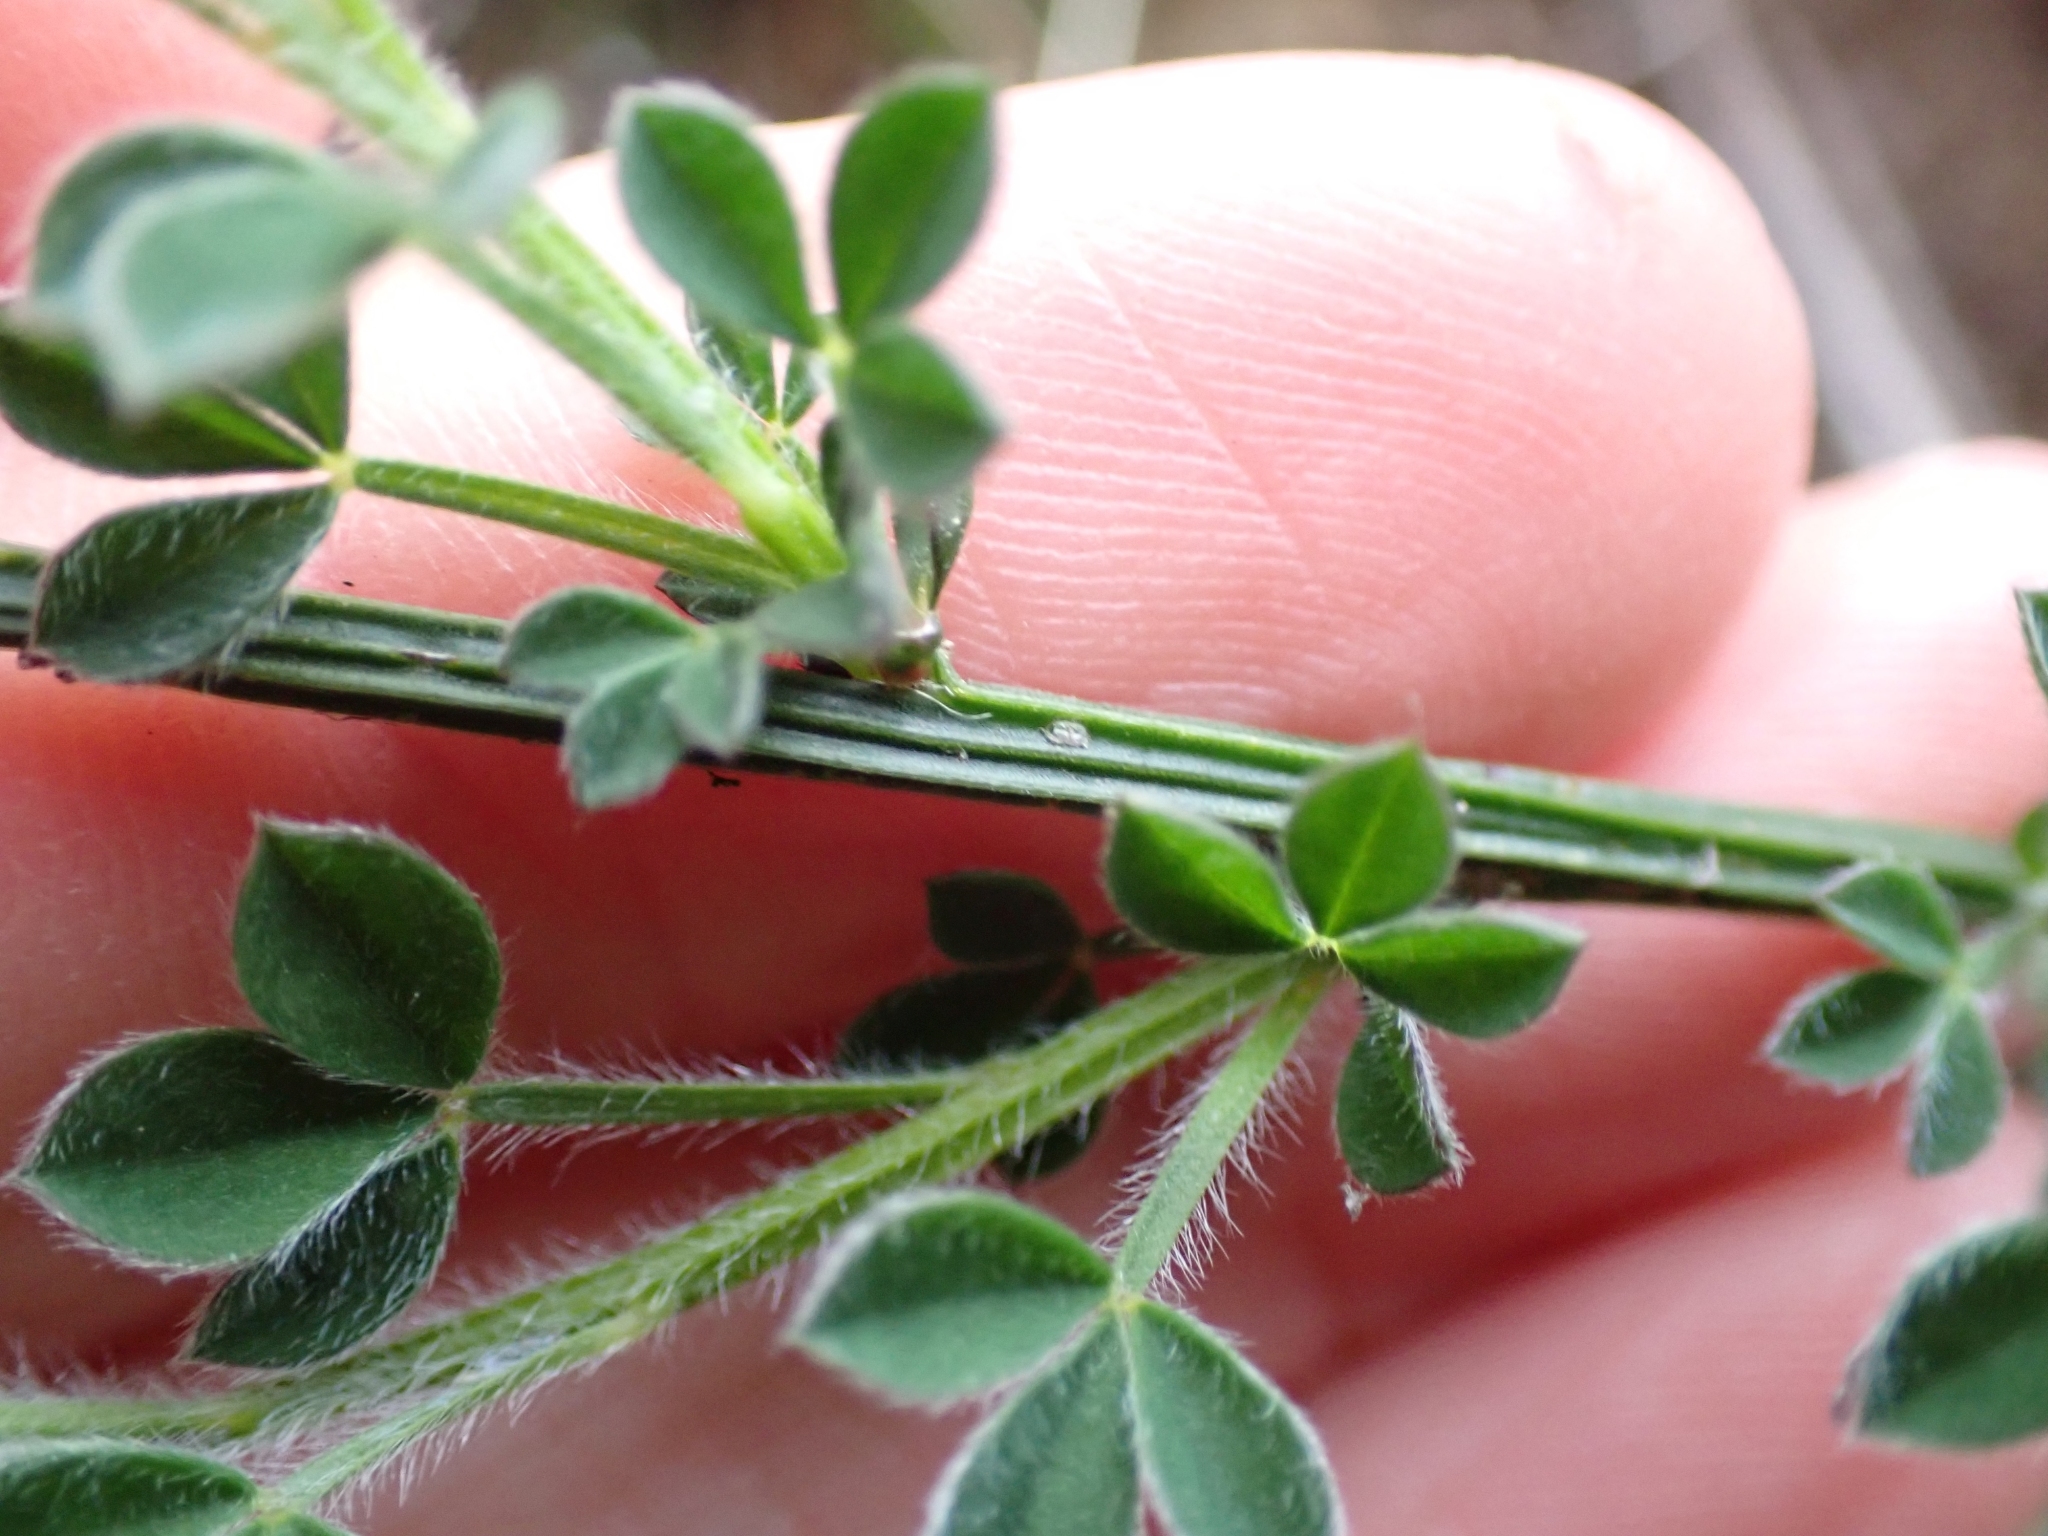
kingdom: Plantae
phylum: Tracheophyta
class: Magnoliopsida
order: Fabales
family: Fabaceae
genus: Cytisus
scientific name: Cytisus scoparius
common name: Scotch broom
